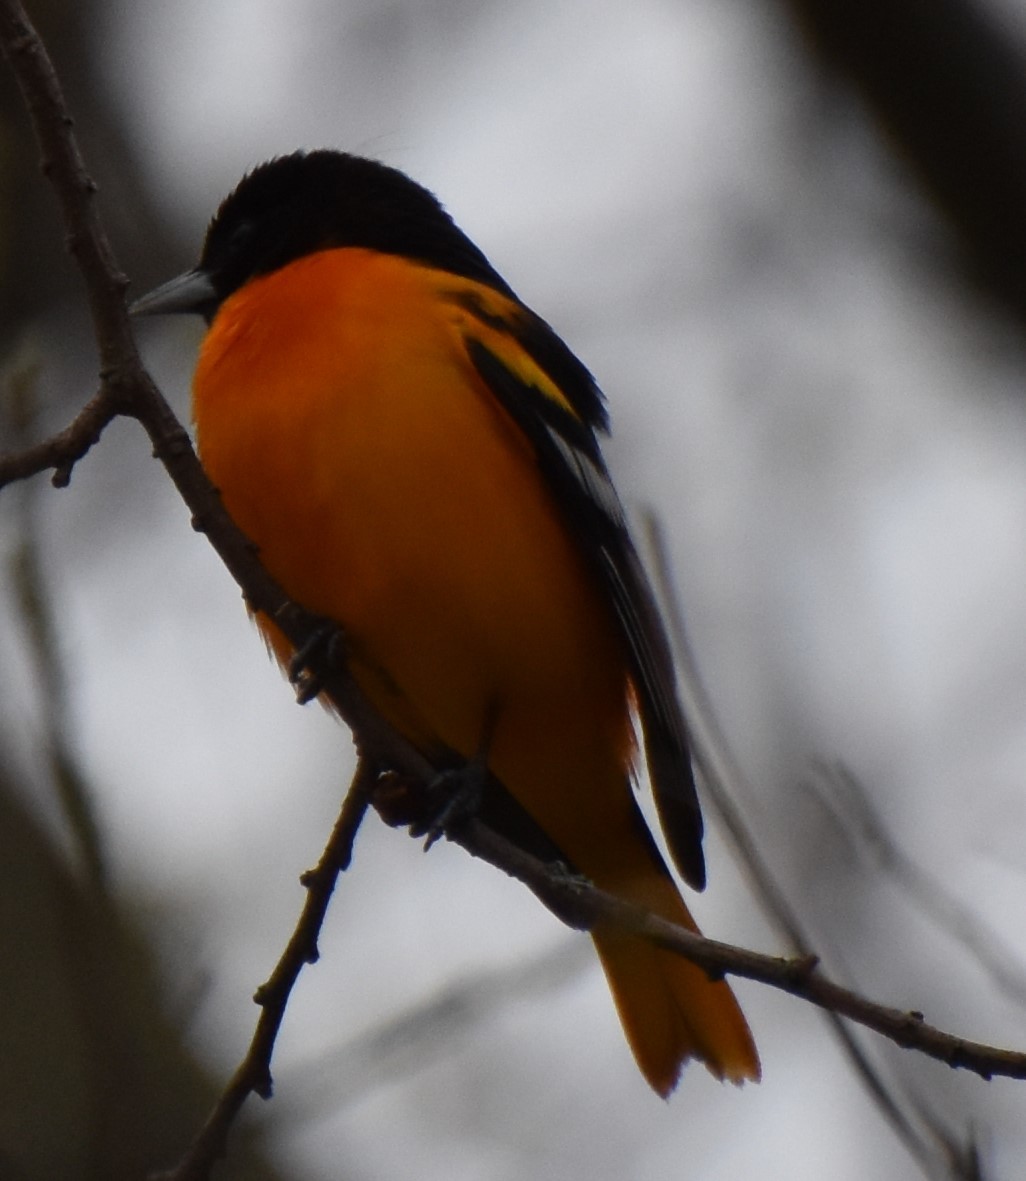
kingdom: Animalia
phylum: Chordata
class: Aves
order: Passeriformes
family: Icteridae
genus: Icterus
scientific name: Icterus galbula
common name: Baltimore oriole
